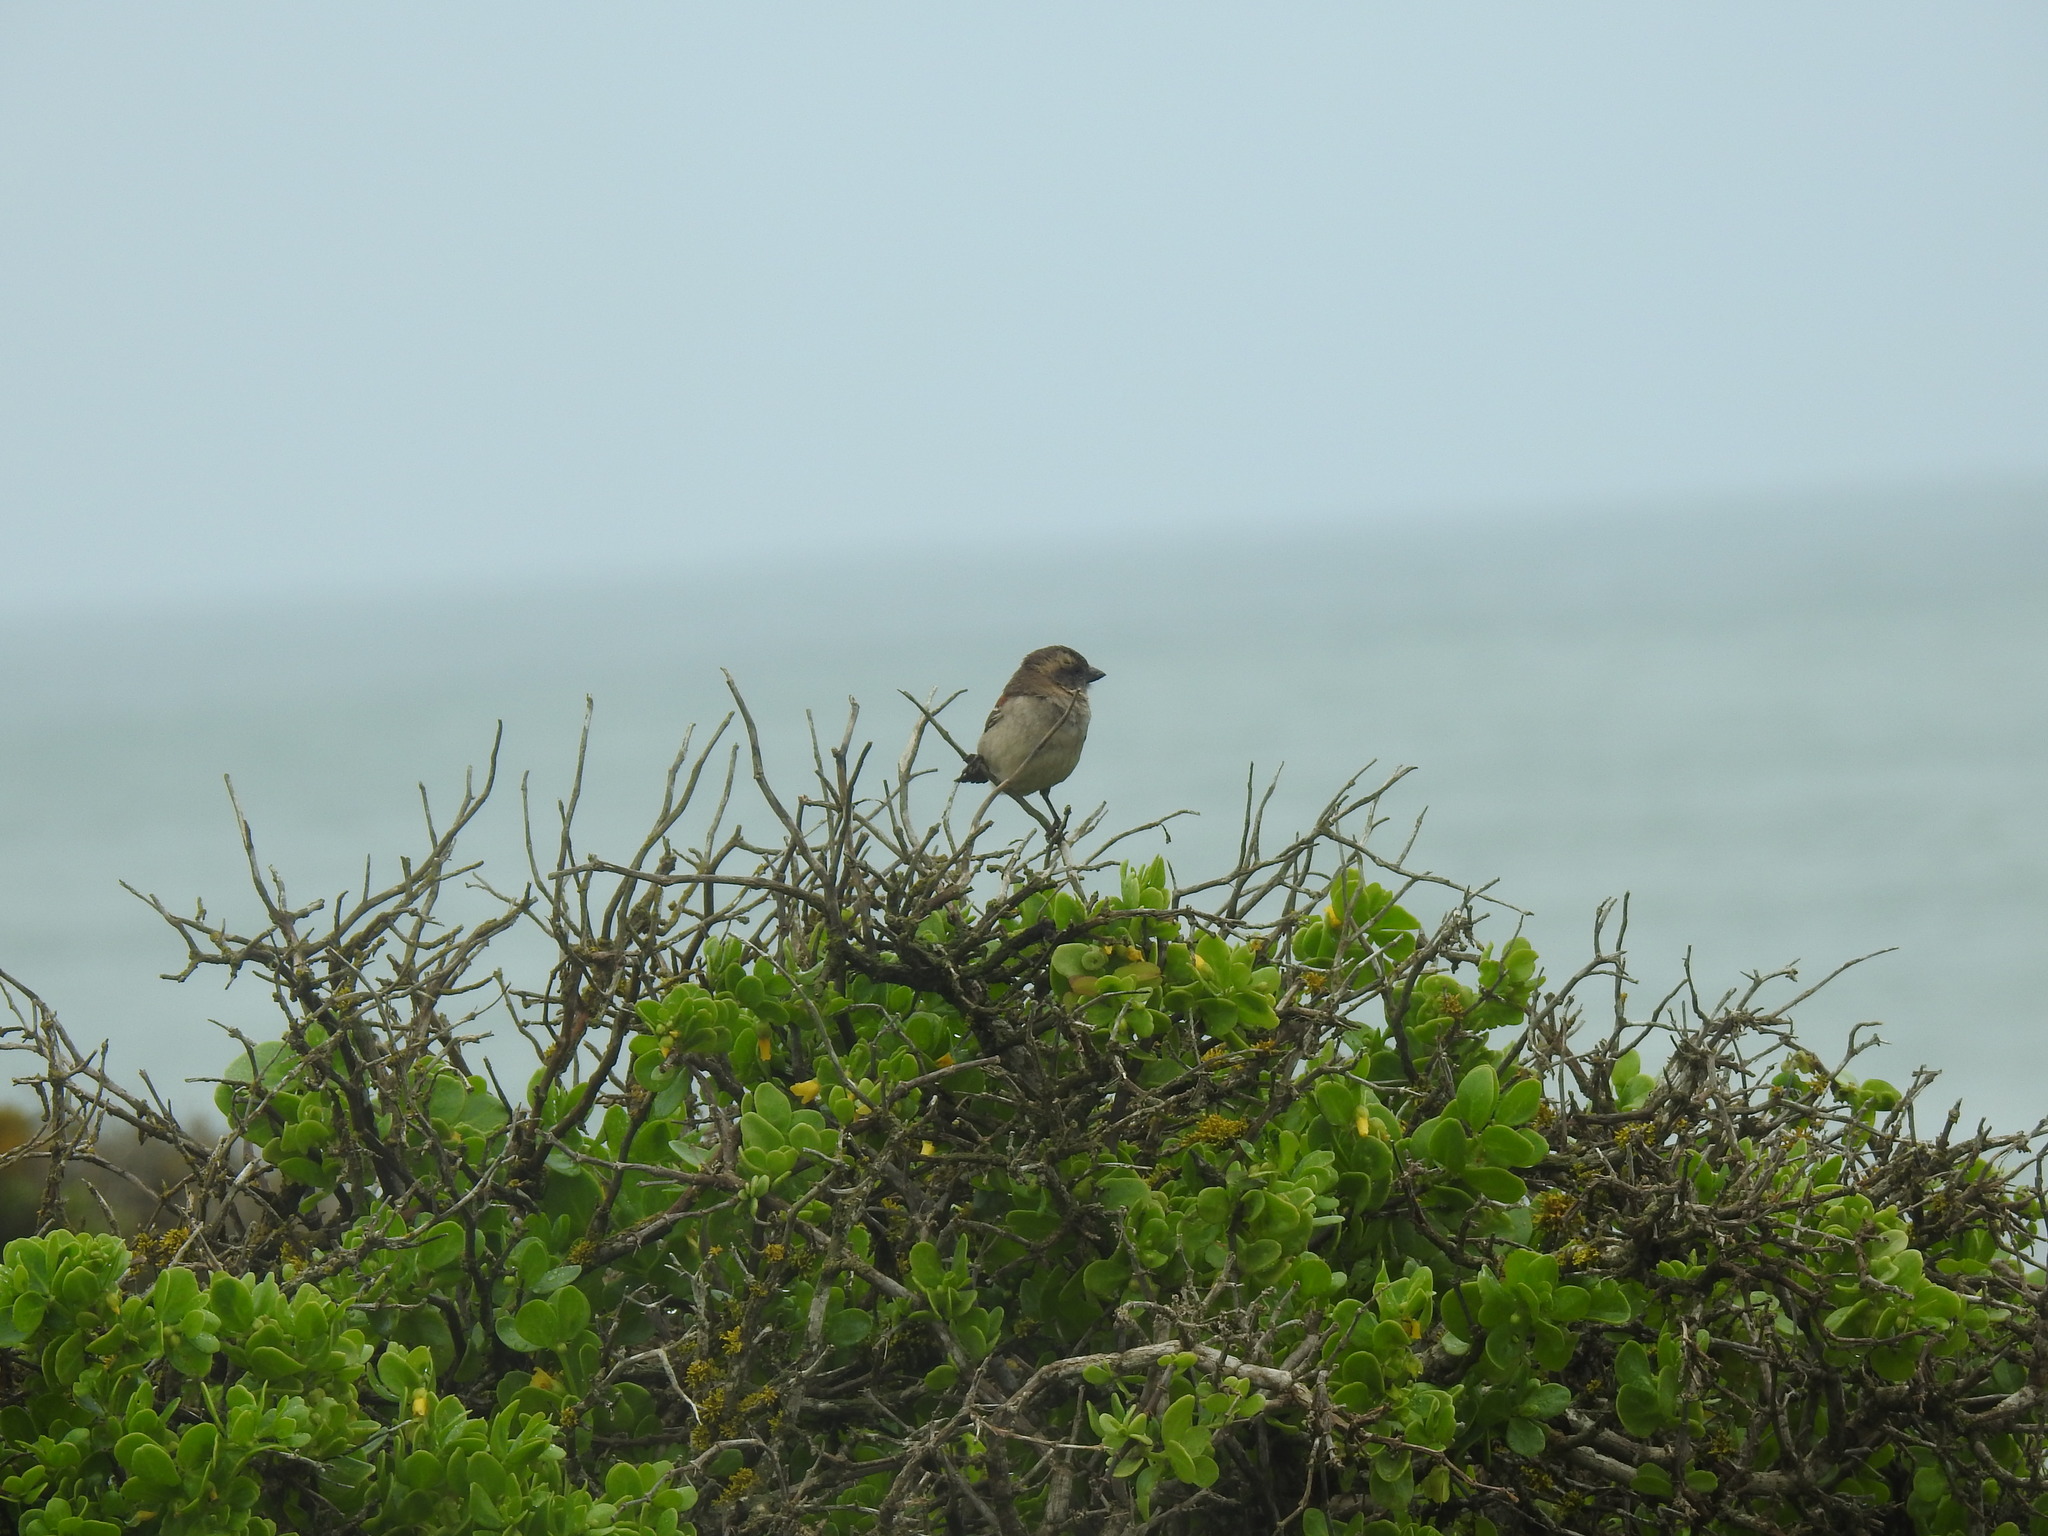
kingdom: Animalia
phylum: Chordata
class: Aves
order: Passeriformes
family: Passeridae
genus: Passer
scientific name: Passer melanurus
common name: Cape sparrow
